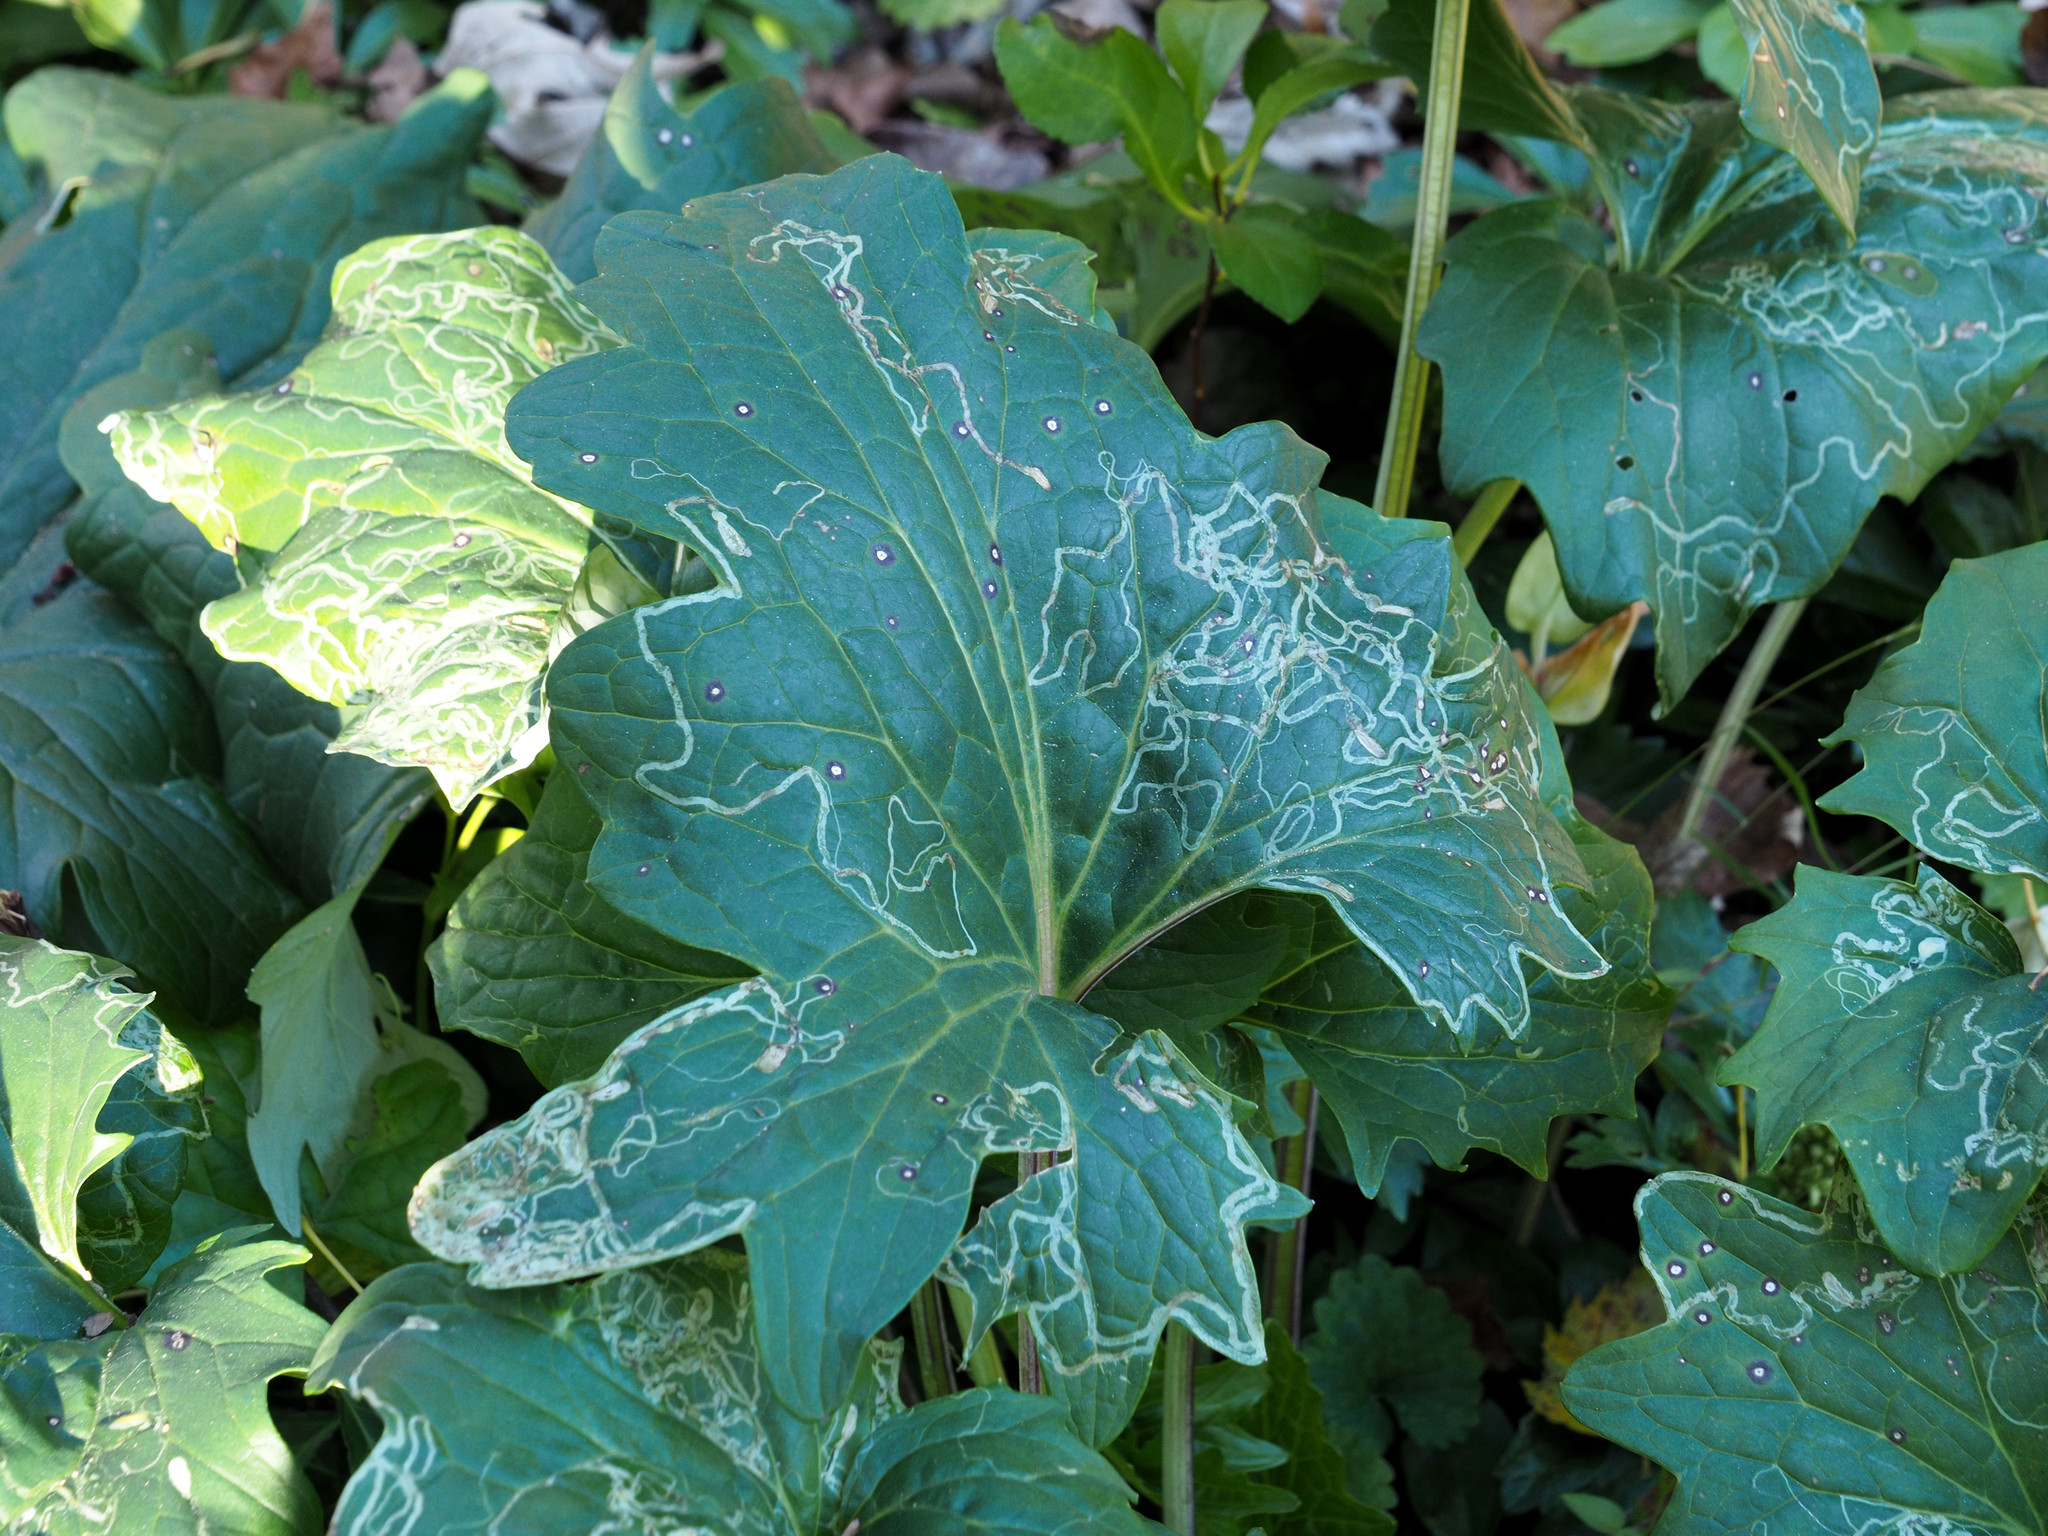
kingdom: Animalia
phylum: Arthropoda
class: Insecta
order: Lepidoptera
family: Gracillariidae
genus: Phyllocnistis
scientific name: Phyllocnistis insignis
